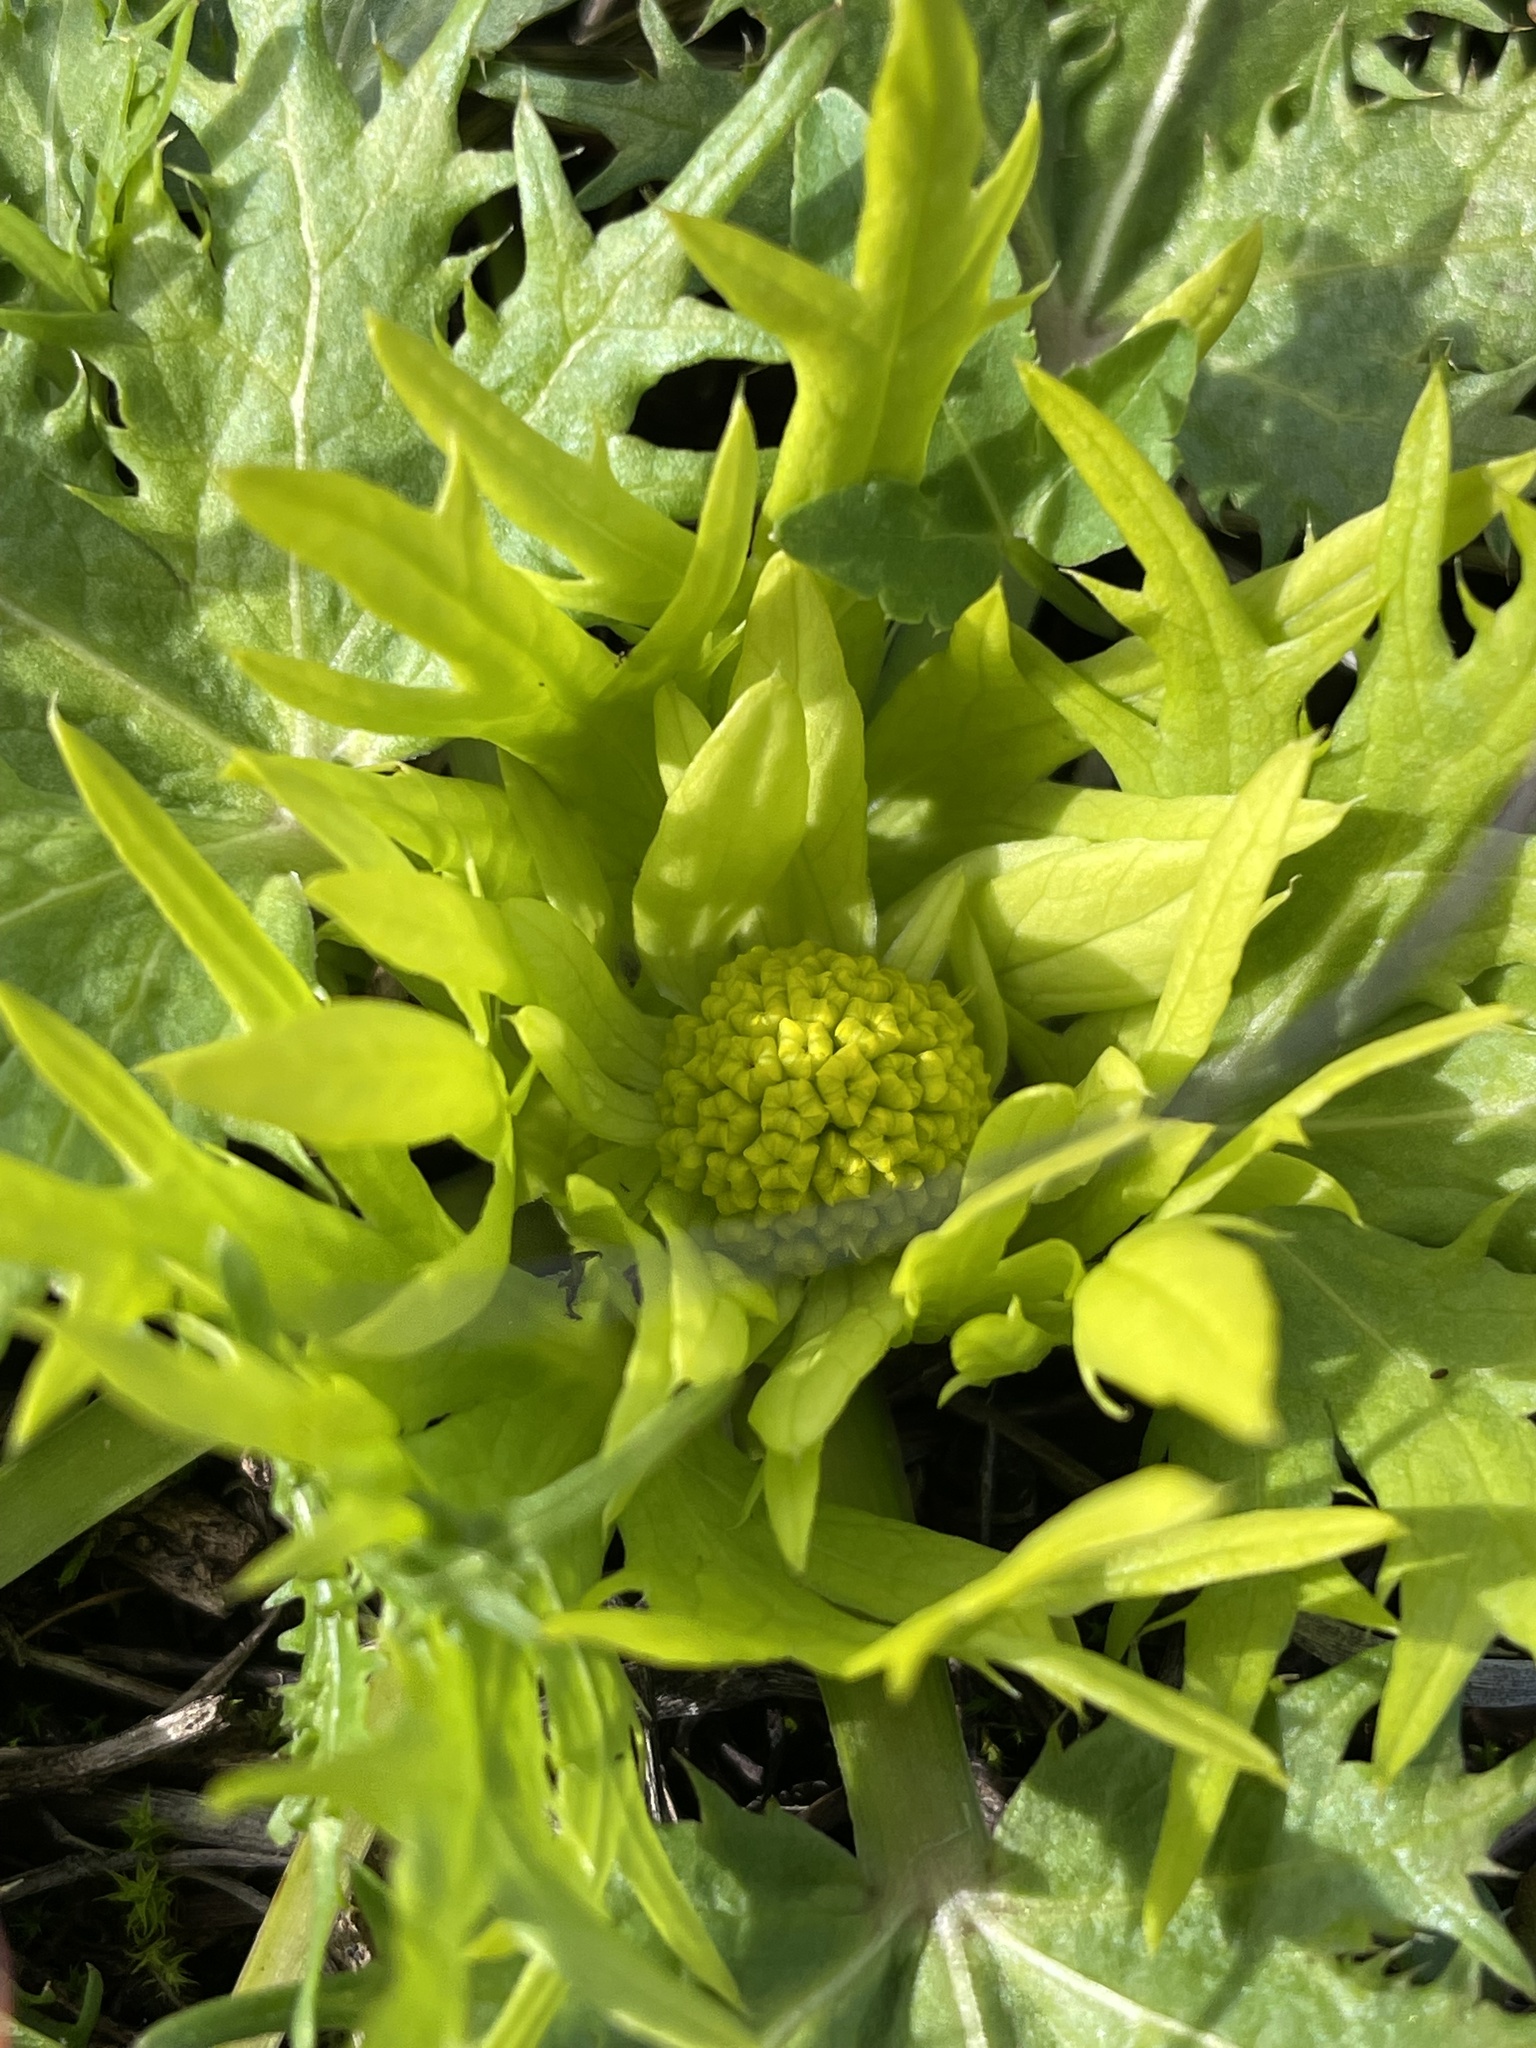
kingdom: Plantae
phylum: Tracheophyta
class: Magnoliopsida
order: Apiales
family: Apiaceae
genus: Sanicula
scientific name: Sanicula arctopoides
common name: Footsteps-of-spring
